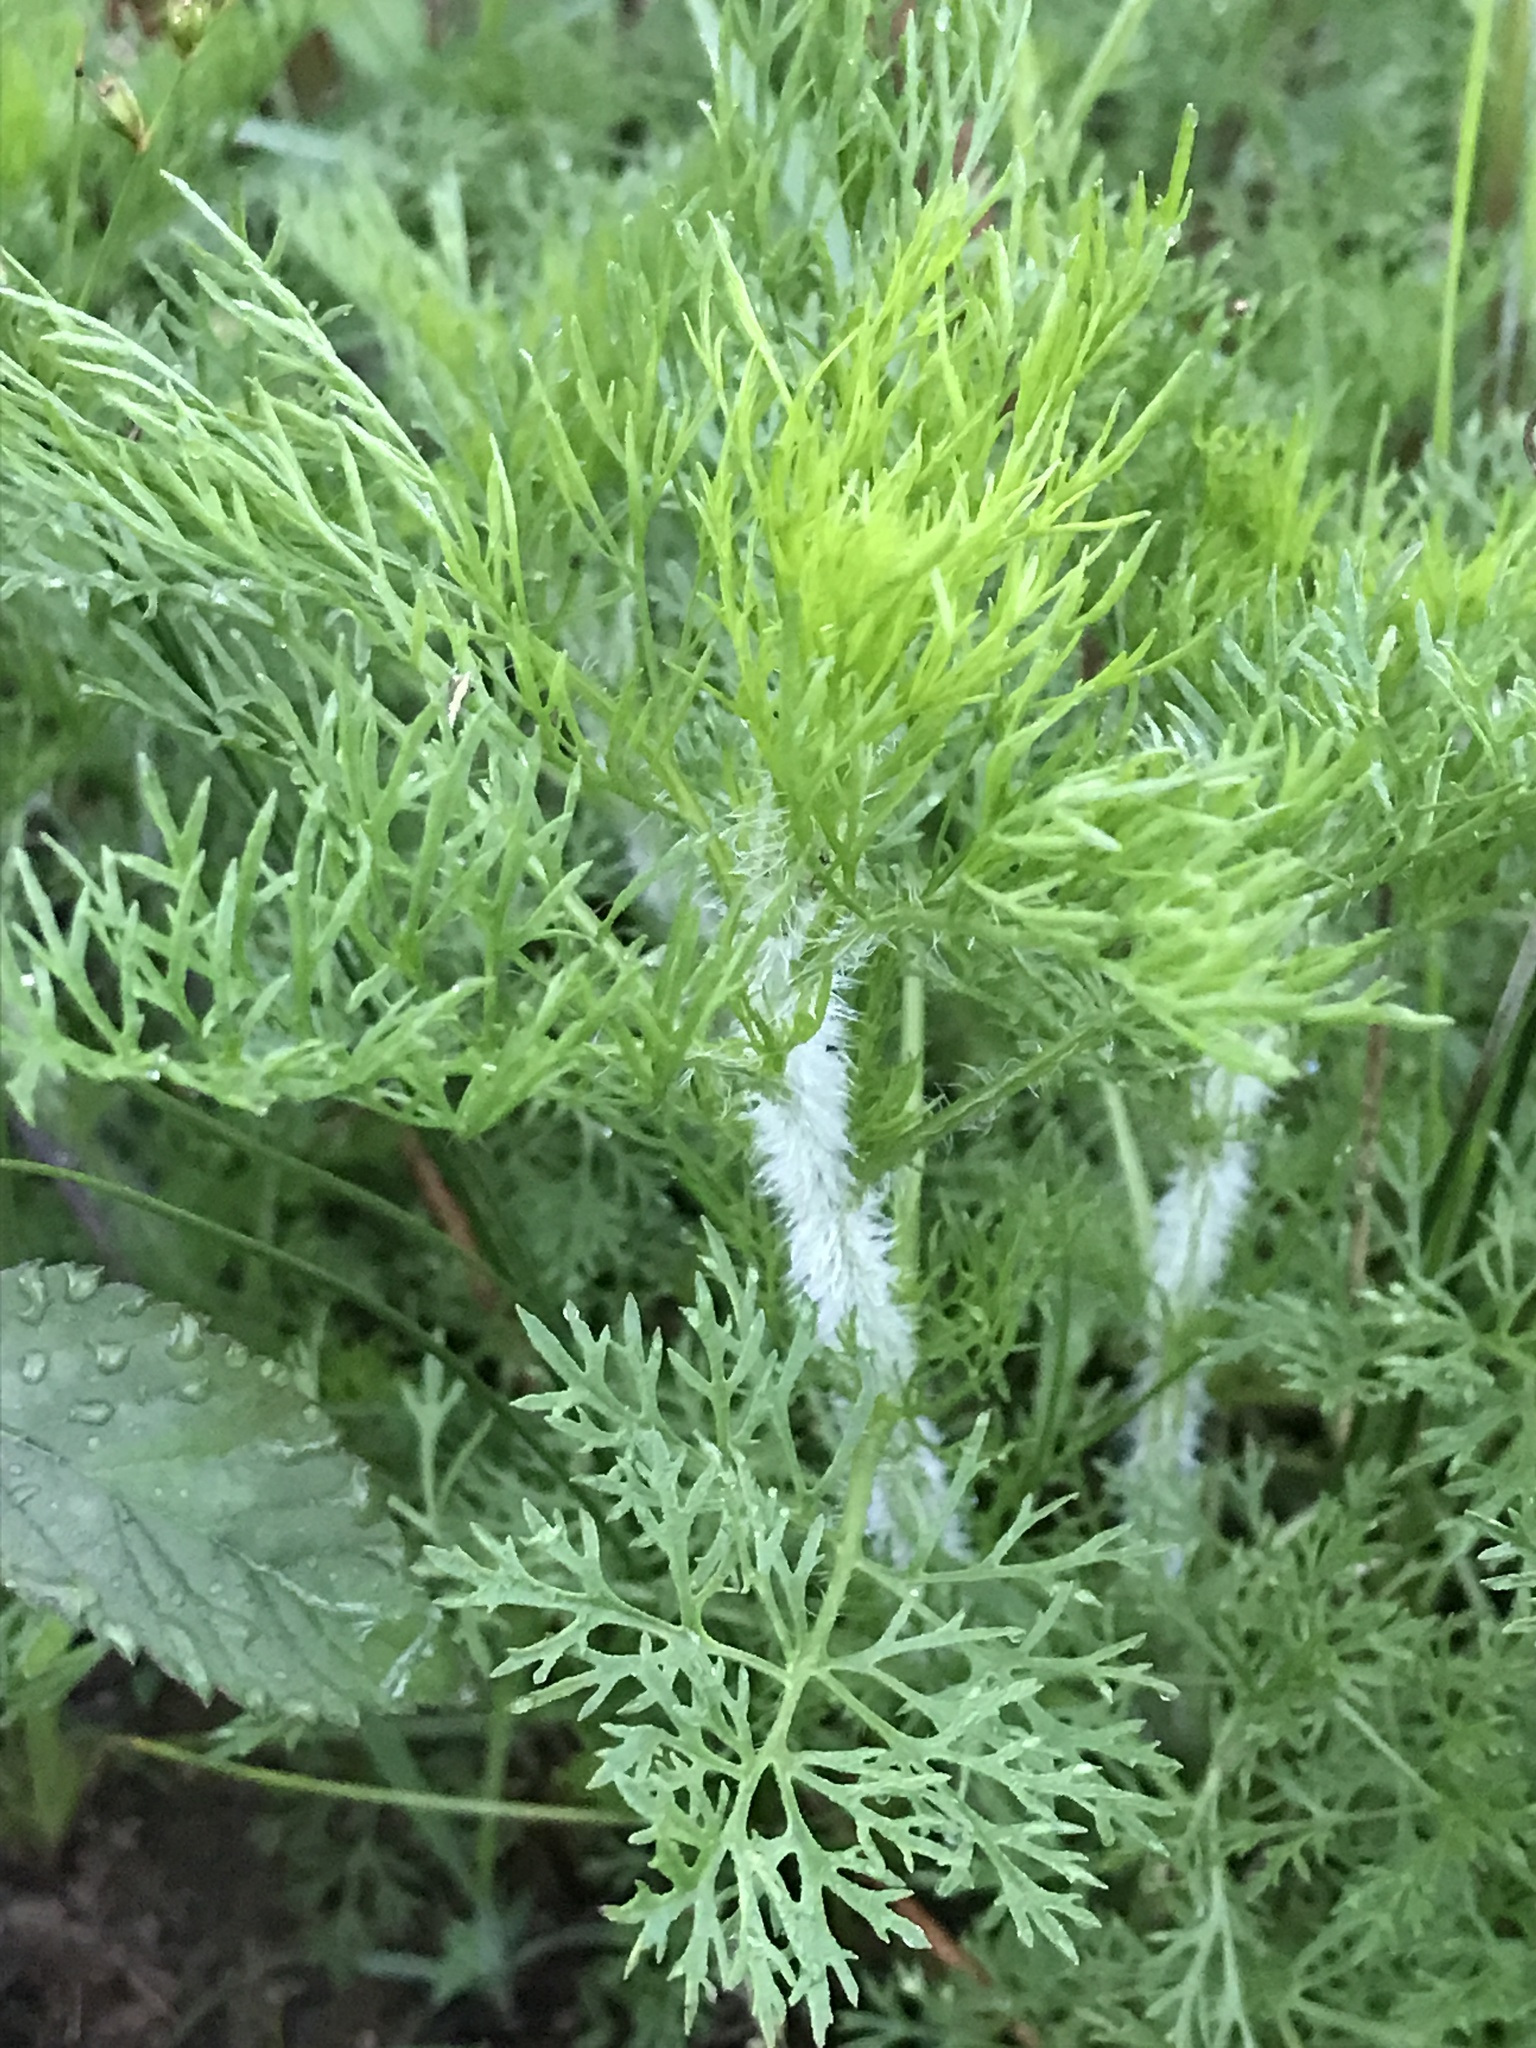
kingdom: Plantae
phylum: Tracheophyta
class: Magnoliopsida
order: Asterales
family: Asteraceae
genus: Eupatorium
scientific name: Eupatorium capillifolium
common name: Dog-fennel
